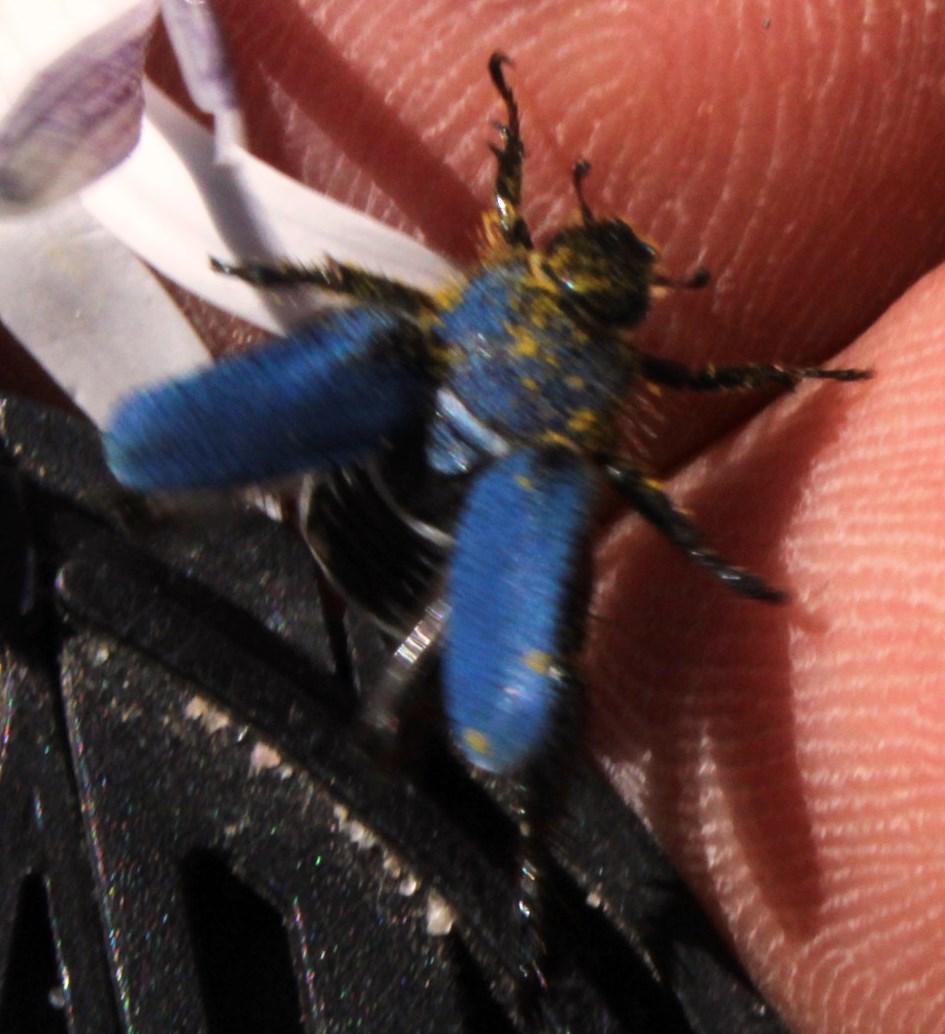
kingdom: Animalia
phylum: Arthropoda
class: Insecta
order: Coleoptera
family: Scarabaeidae
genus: Scelophysa
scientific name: Scelophysa trimeni
